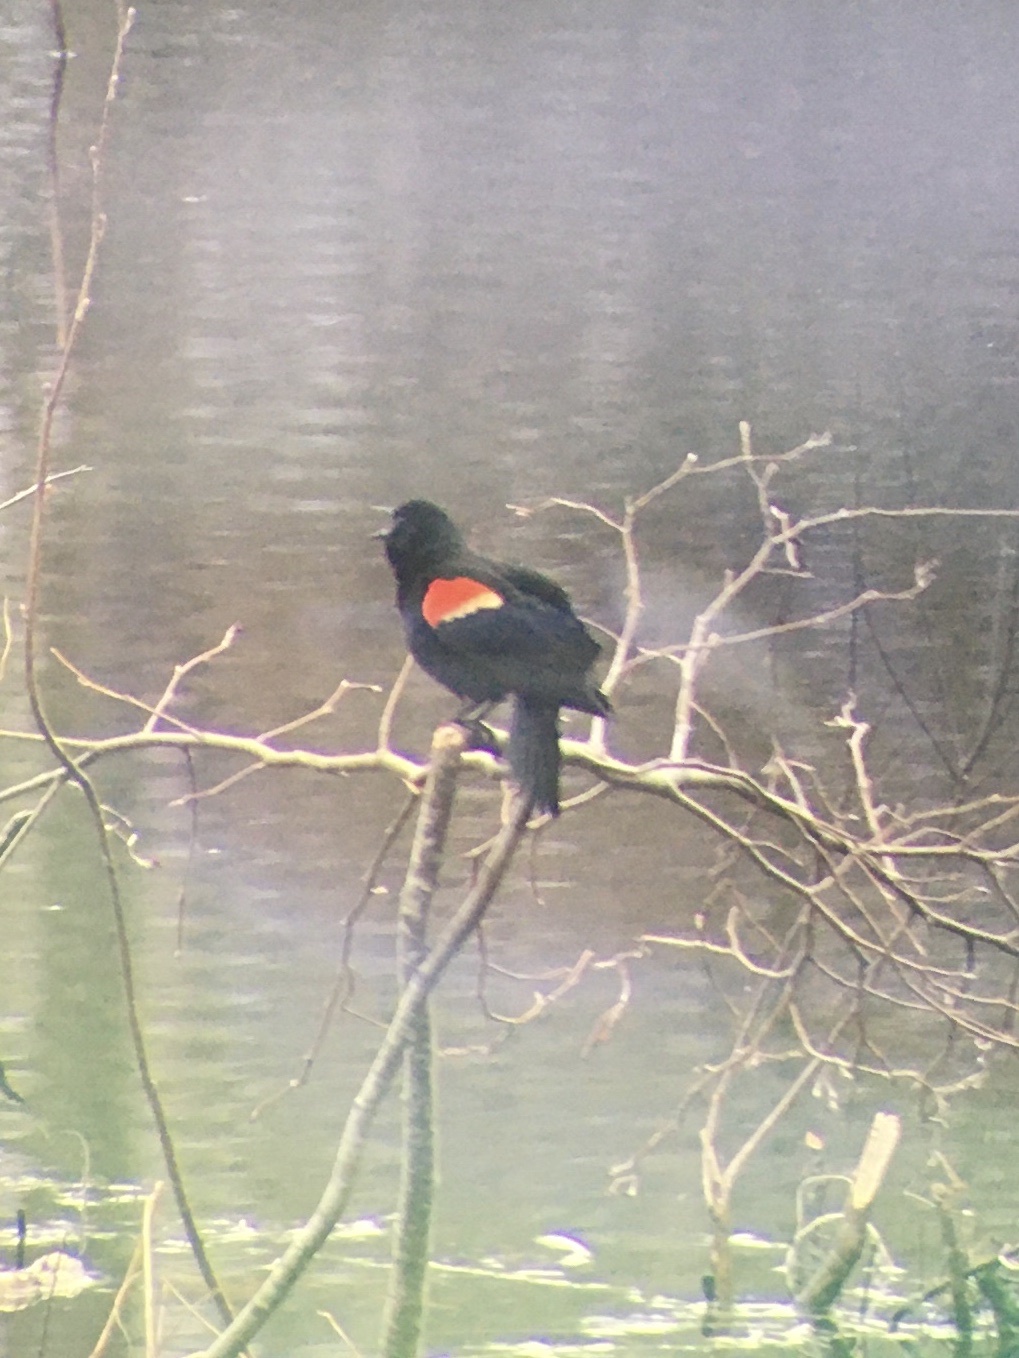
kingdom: Animalia
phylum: Chordata
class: Aves
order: Passeriformes
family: Icteridae
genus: Agelaius
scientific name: Agelaius phoeniceus
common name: Red-winged blackbird
